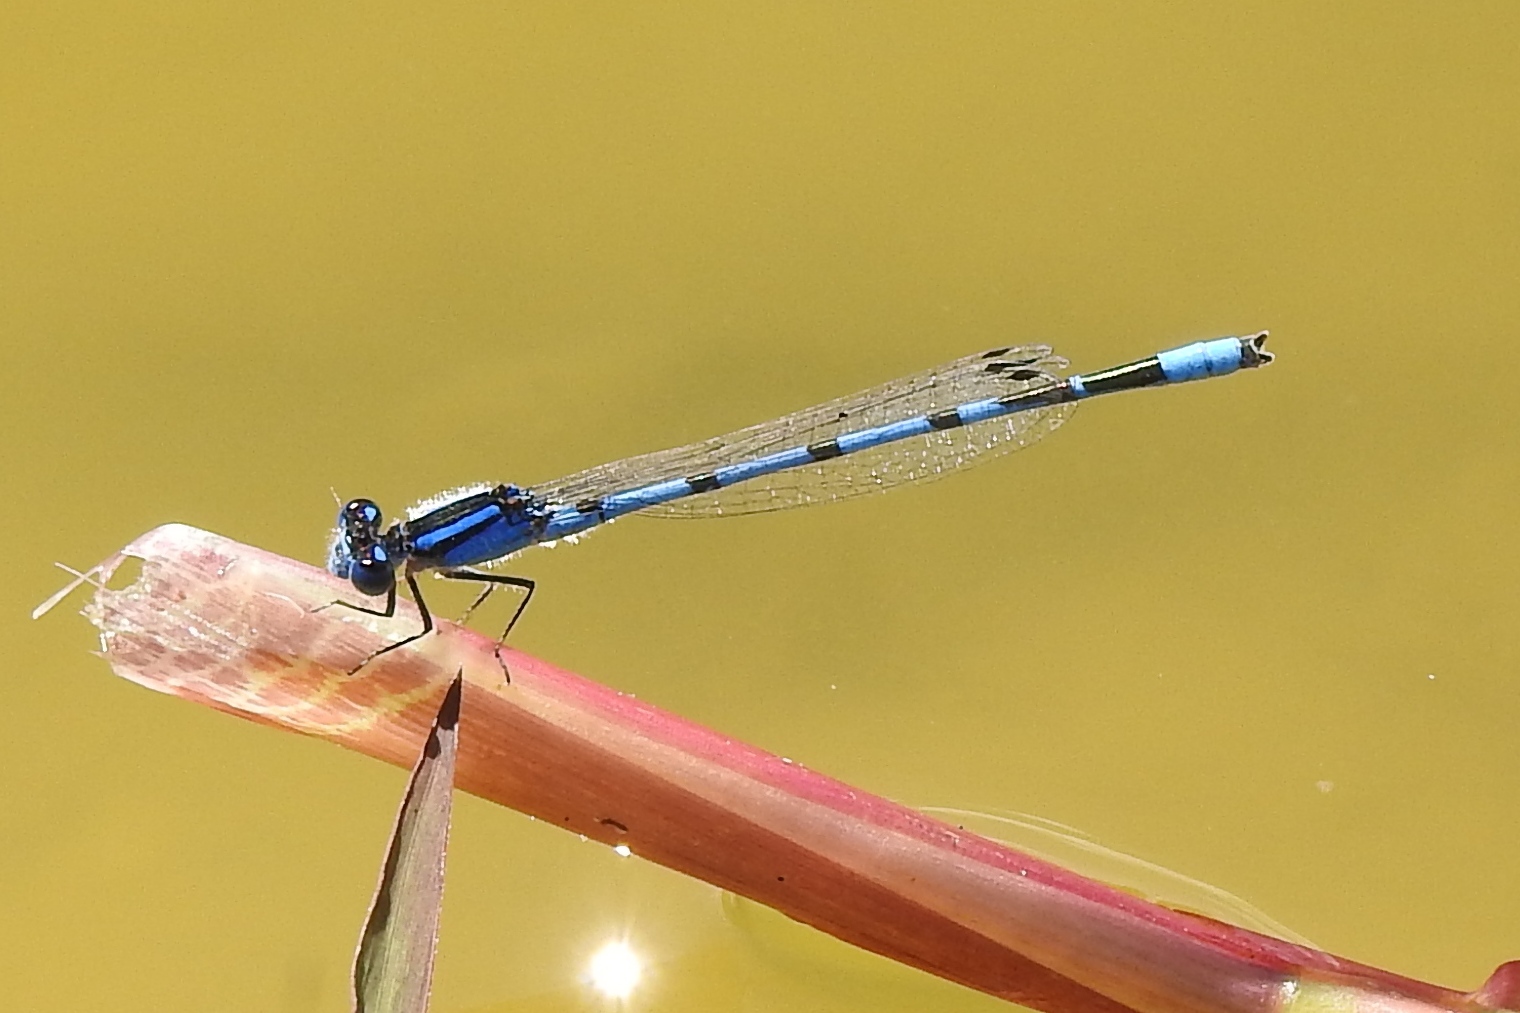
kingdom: Animalia
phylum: Arthropoda
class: Insecta
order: Odonata
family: Coenagrionidae
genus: Enallagma
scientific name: Enallagma civile
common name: Damselfly
